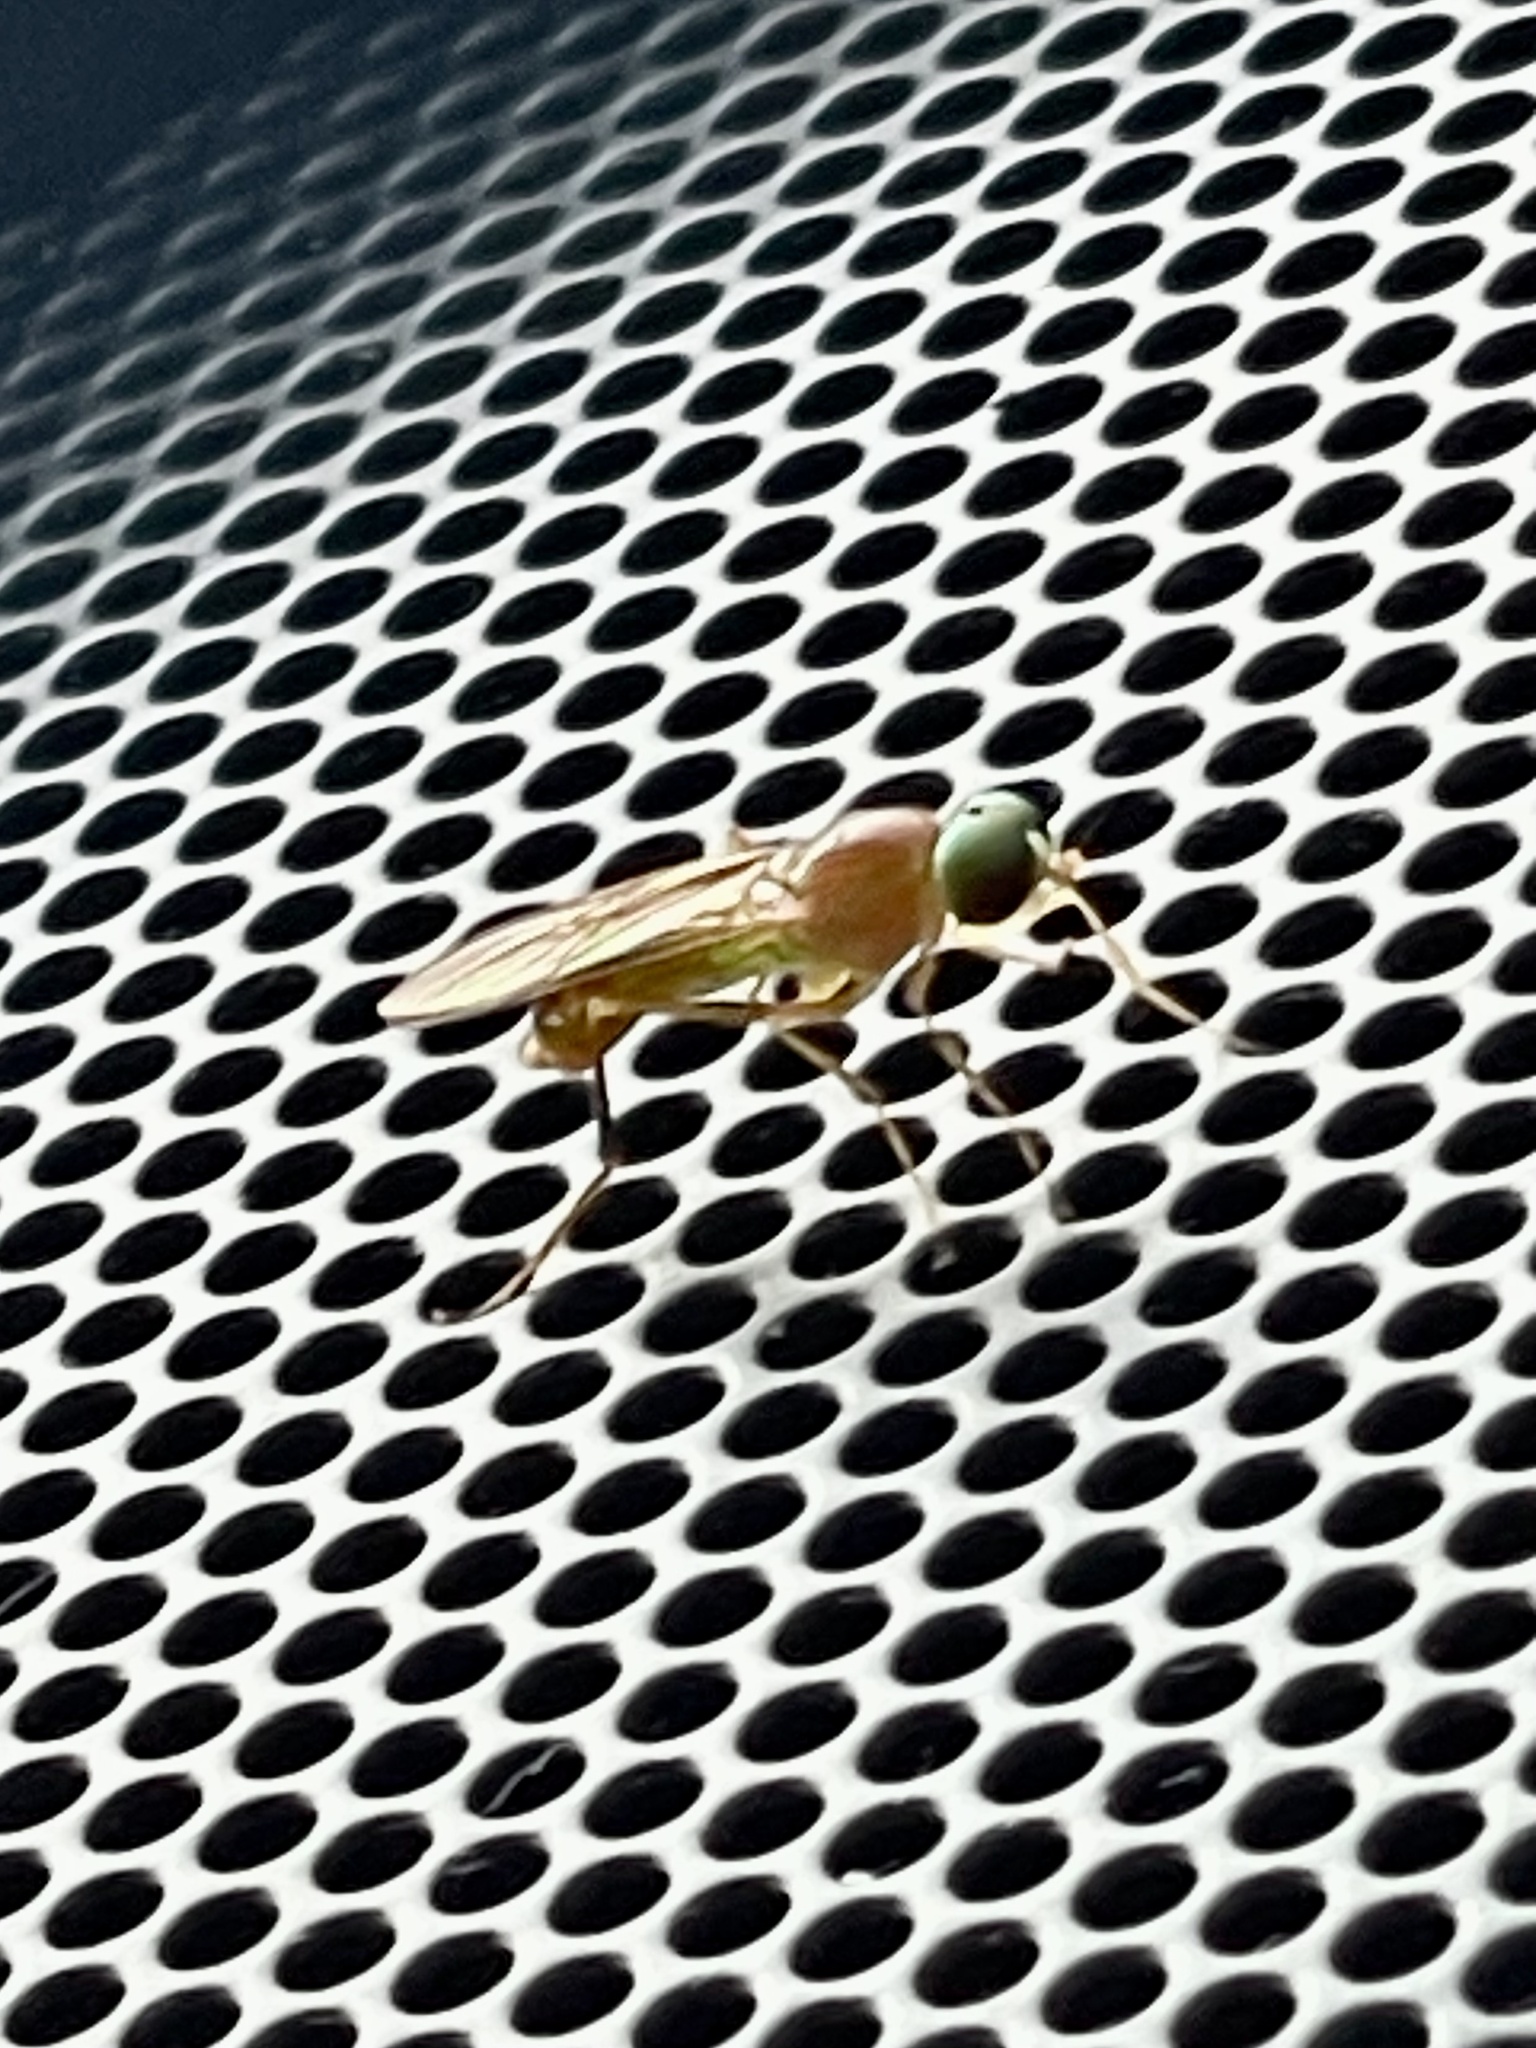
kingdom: Animalia
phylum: Arthropoda
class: Insecta
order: Diptera
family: Stratiomyidae
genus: Ptecticus
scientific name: Ptecticus trivittatus
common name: Compost fly
